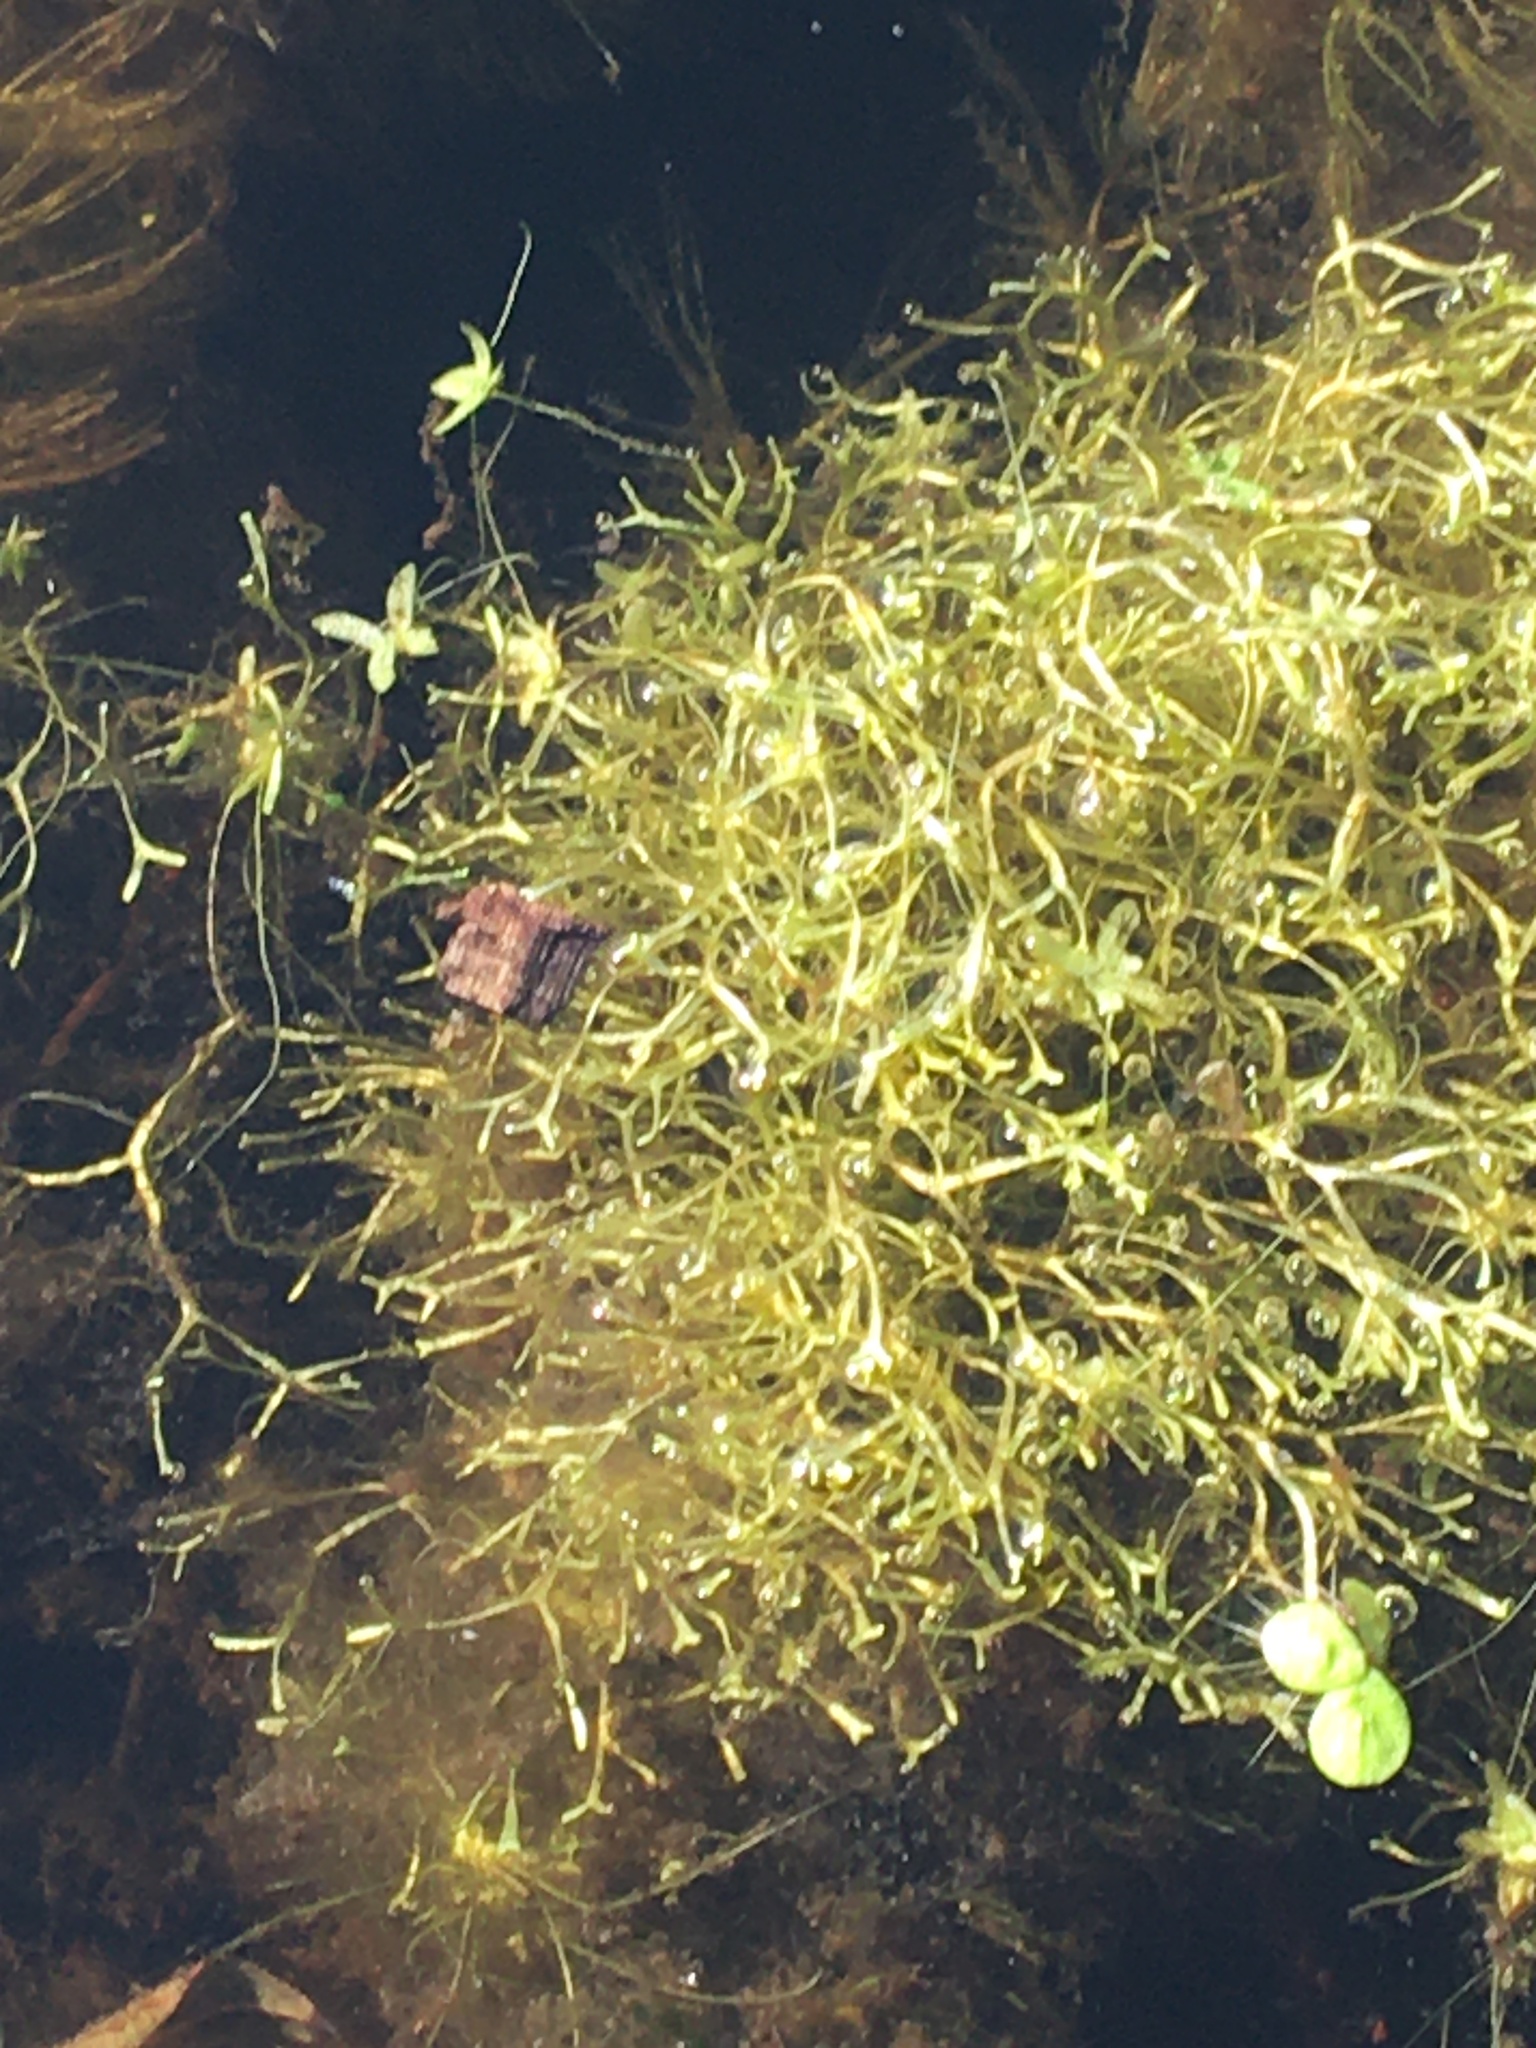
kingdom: Plantae
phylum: Marchantiophyta
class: Marchantiopsida
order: Marchantiales
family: Ricciaceae
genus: Riccia
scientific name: Riccia fluitans
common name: Floating crystalwort
